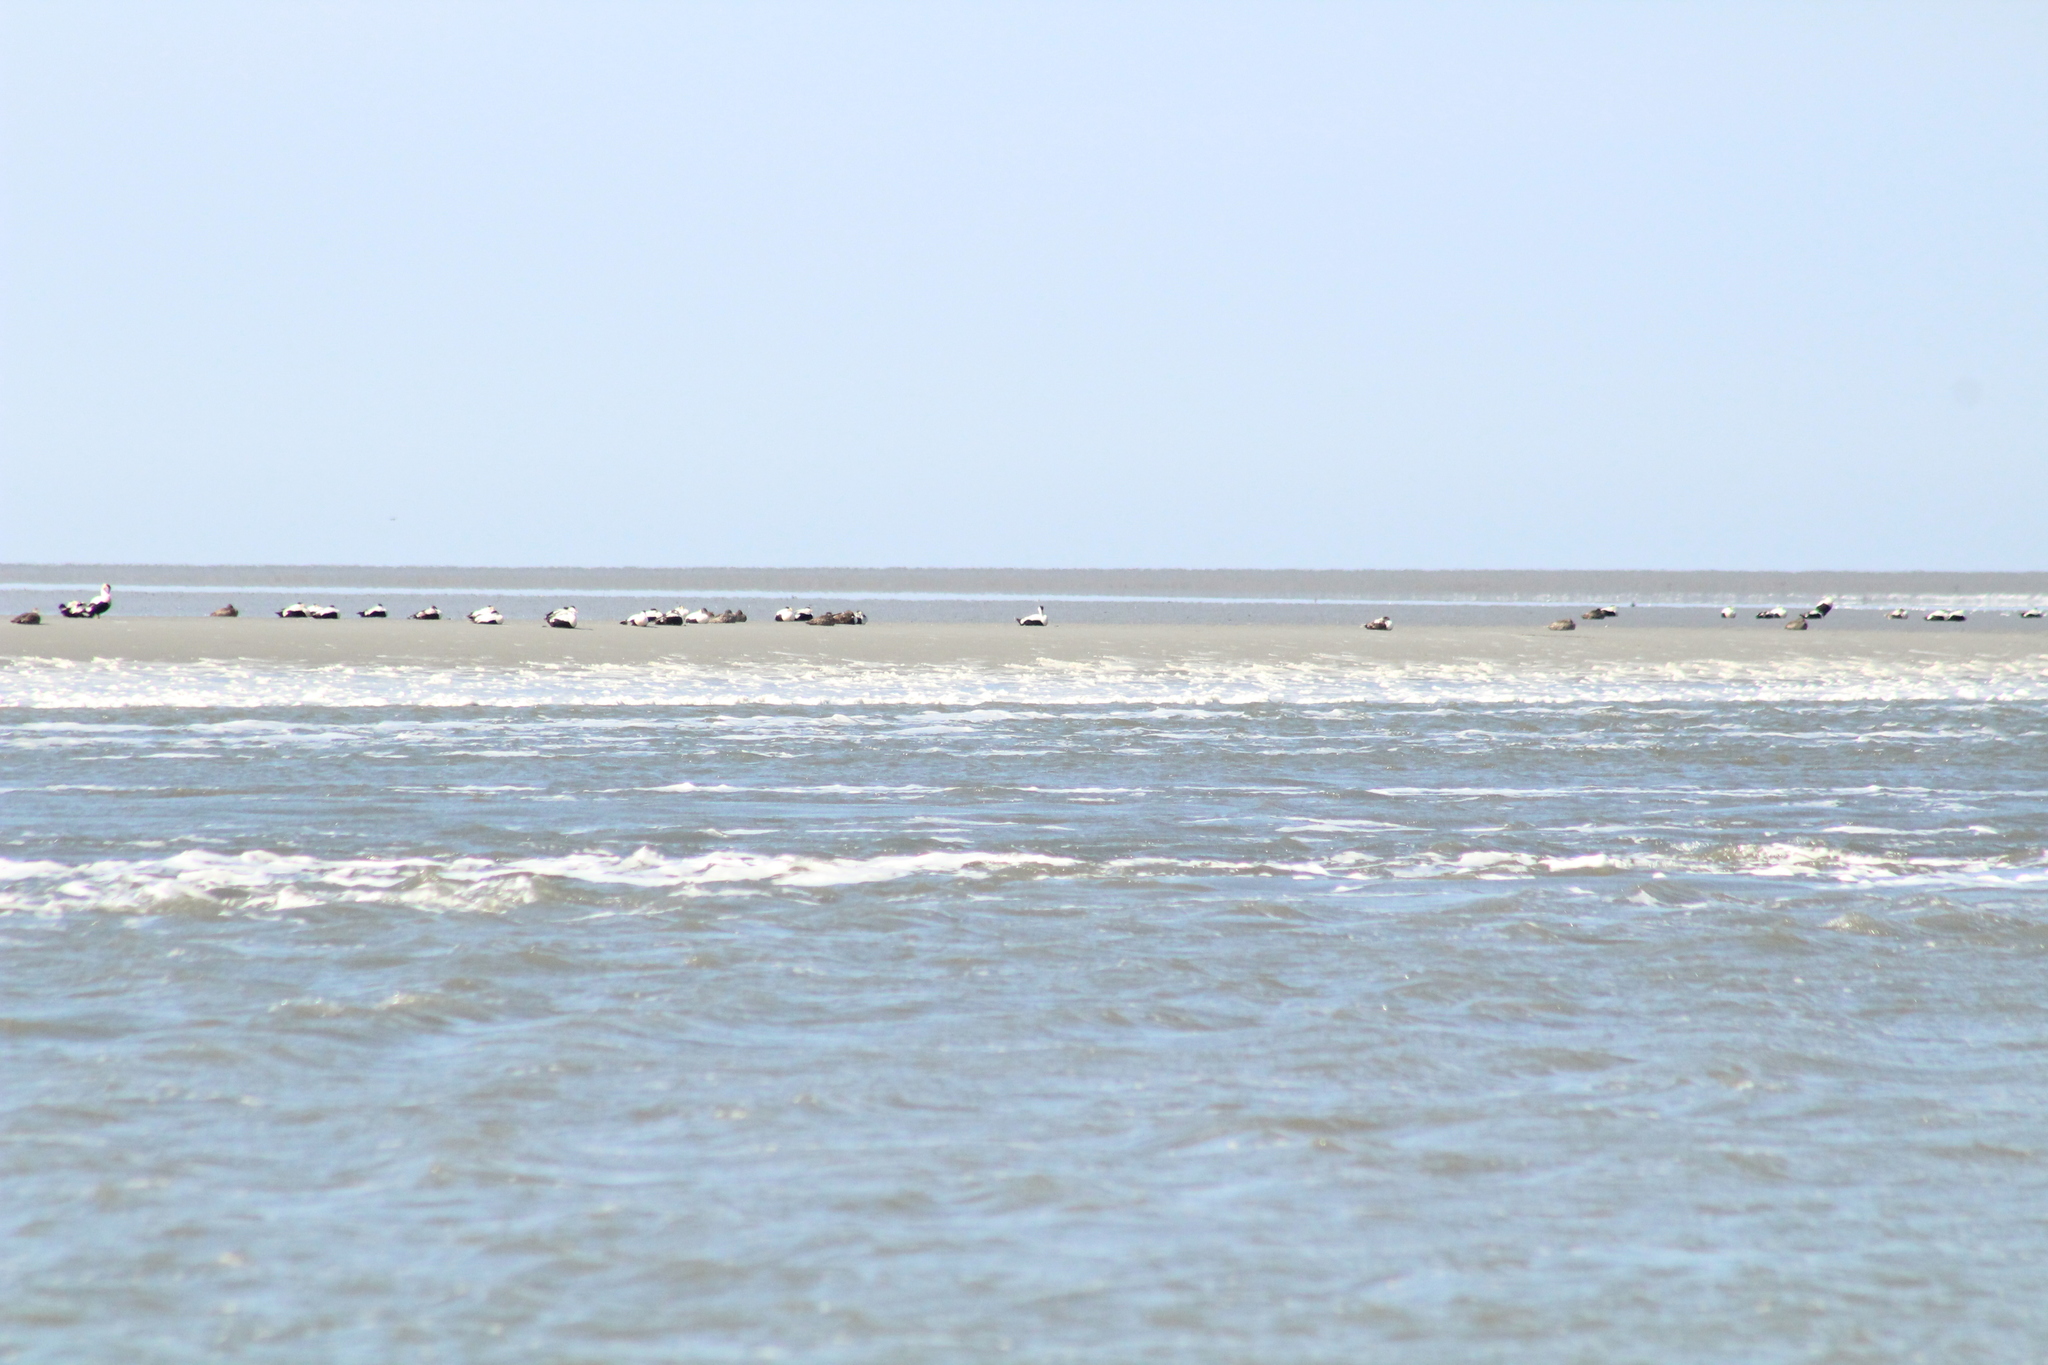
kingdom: Animalia
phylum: Chordata
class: Aves
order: Anseriformes
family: Anatidae
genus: Somateria
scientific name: Somateria mollissima
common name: Common eider
